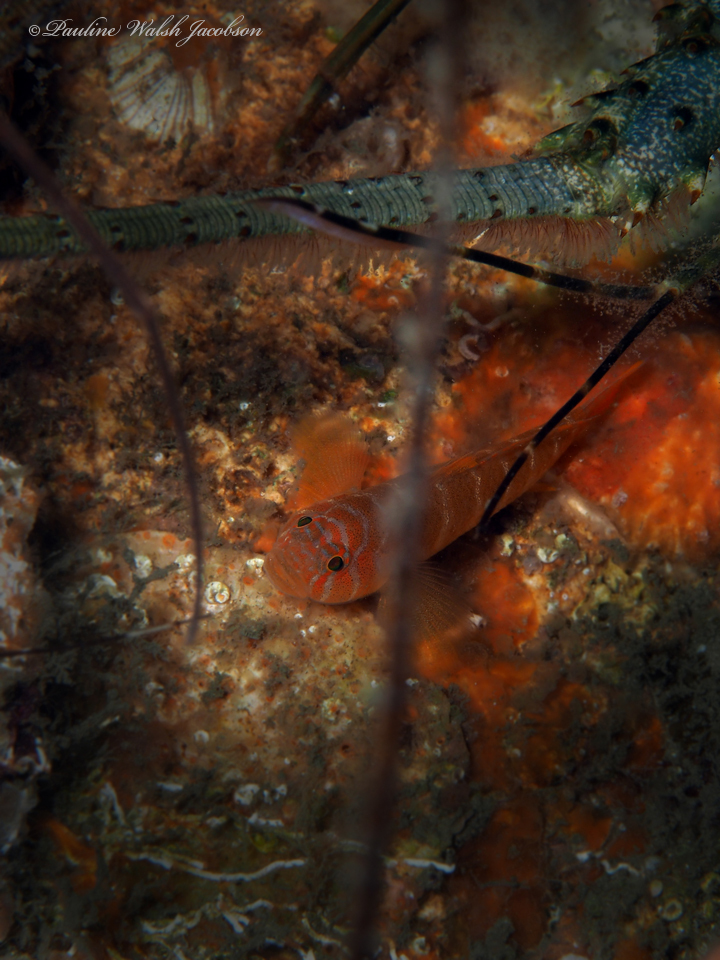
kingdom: Animalia
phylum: Chordata
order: Perciformes
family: Gobiidae
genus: Priolepis
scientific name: Priolepis hipoliti
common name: Rusty goby
